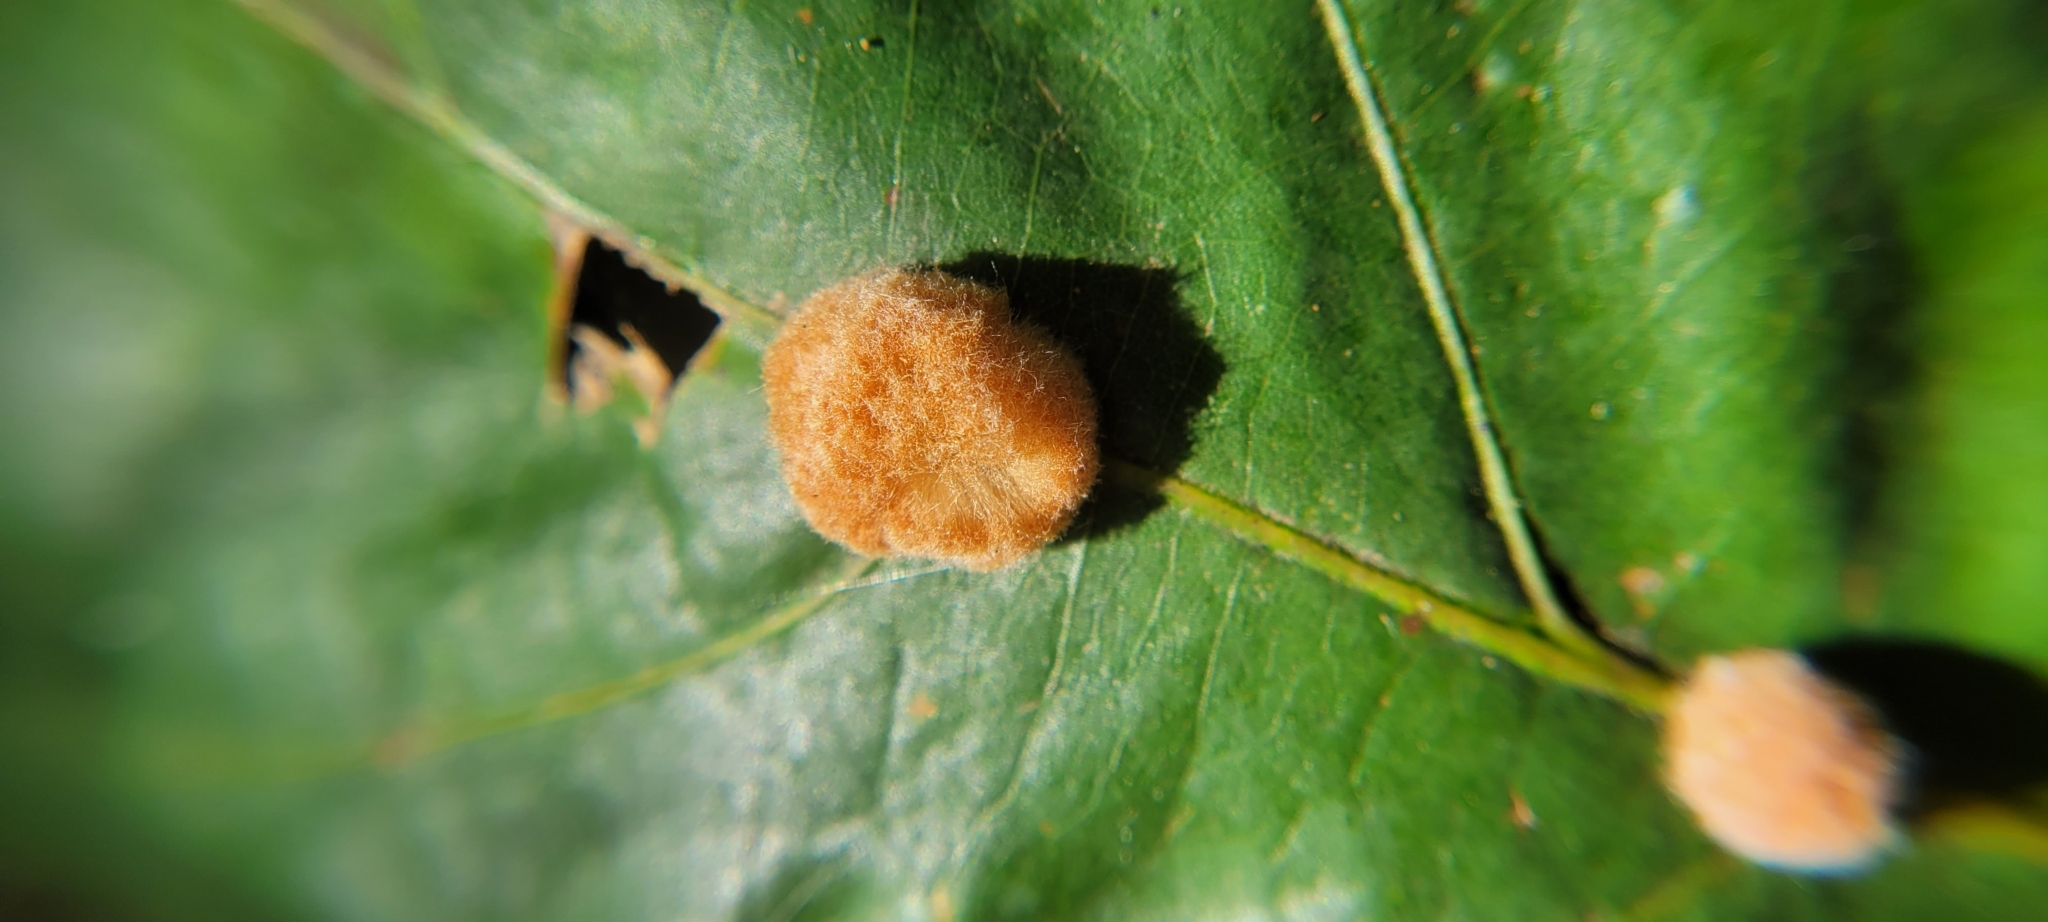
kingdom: Animalia
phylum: Arthropoda
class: Insecta
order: Hymenoptera
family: Cynipidae
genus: Andricus
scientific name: Andricus quercusflocci
